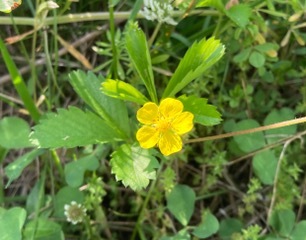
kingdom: Plantae
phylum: Tracheophyta
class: Magnoliopsida
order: Rosales
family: Rosaceae
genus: Potentilla
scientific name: Potentilla simplex
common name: Old field cinquefoil
